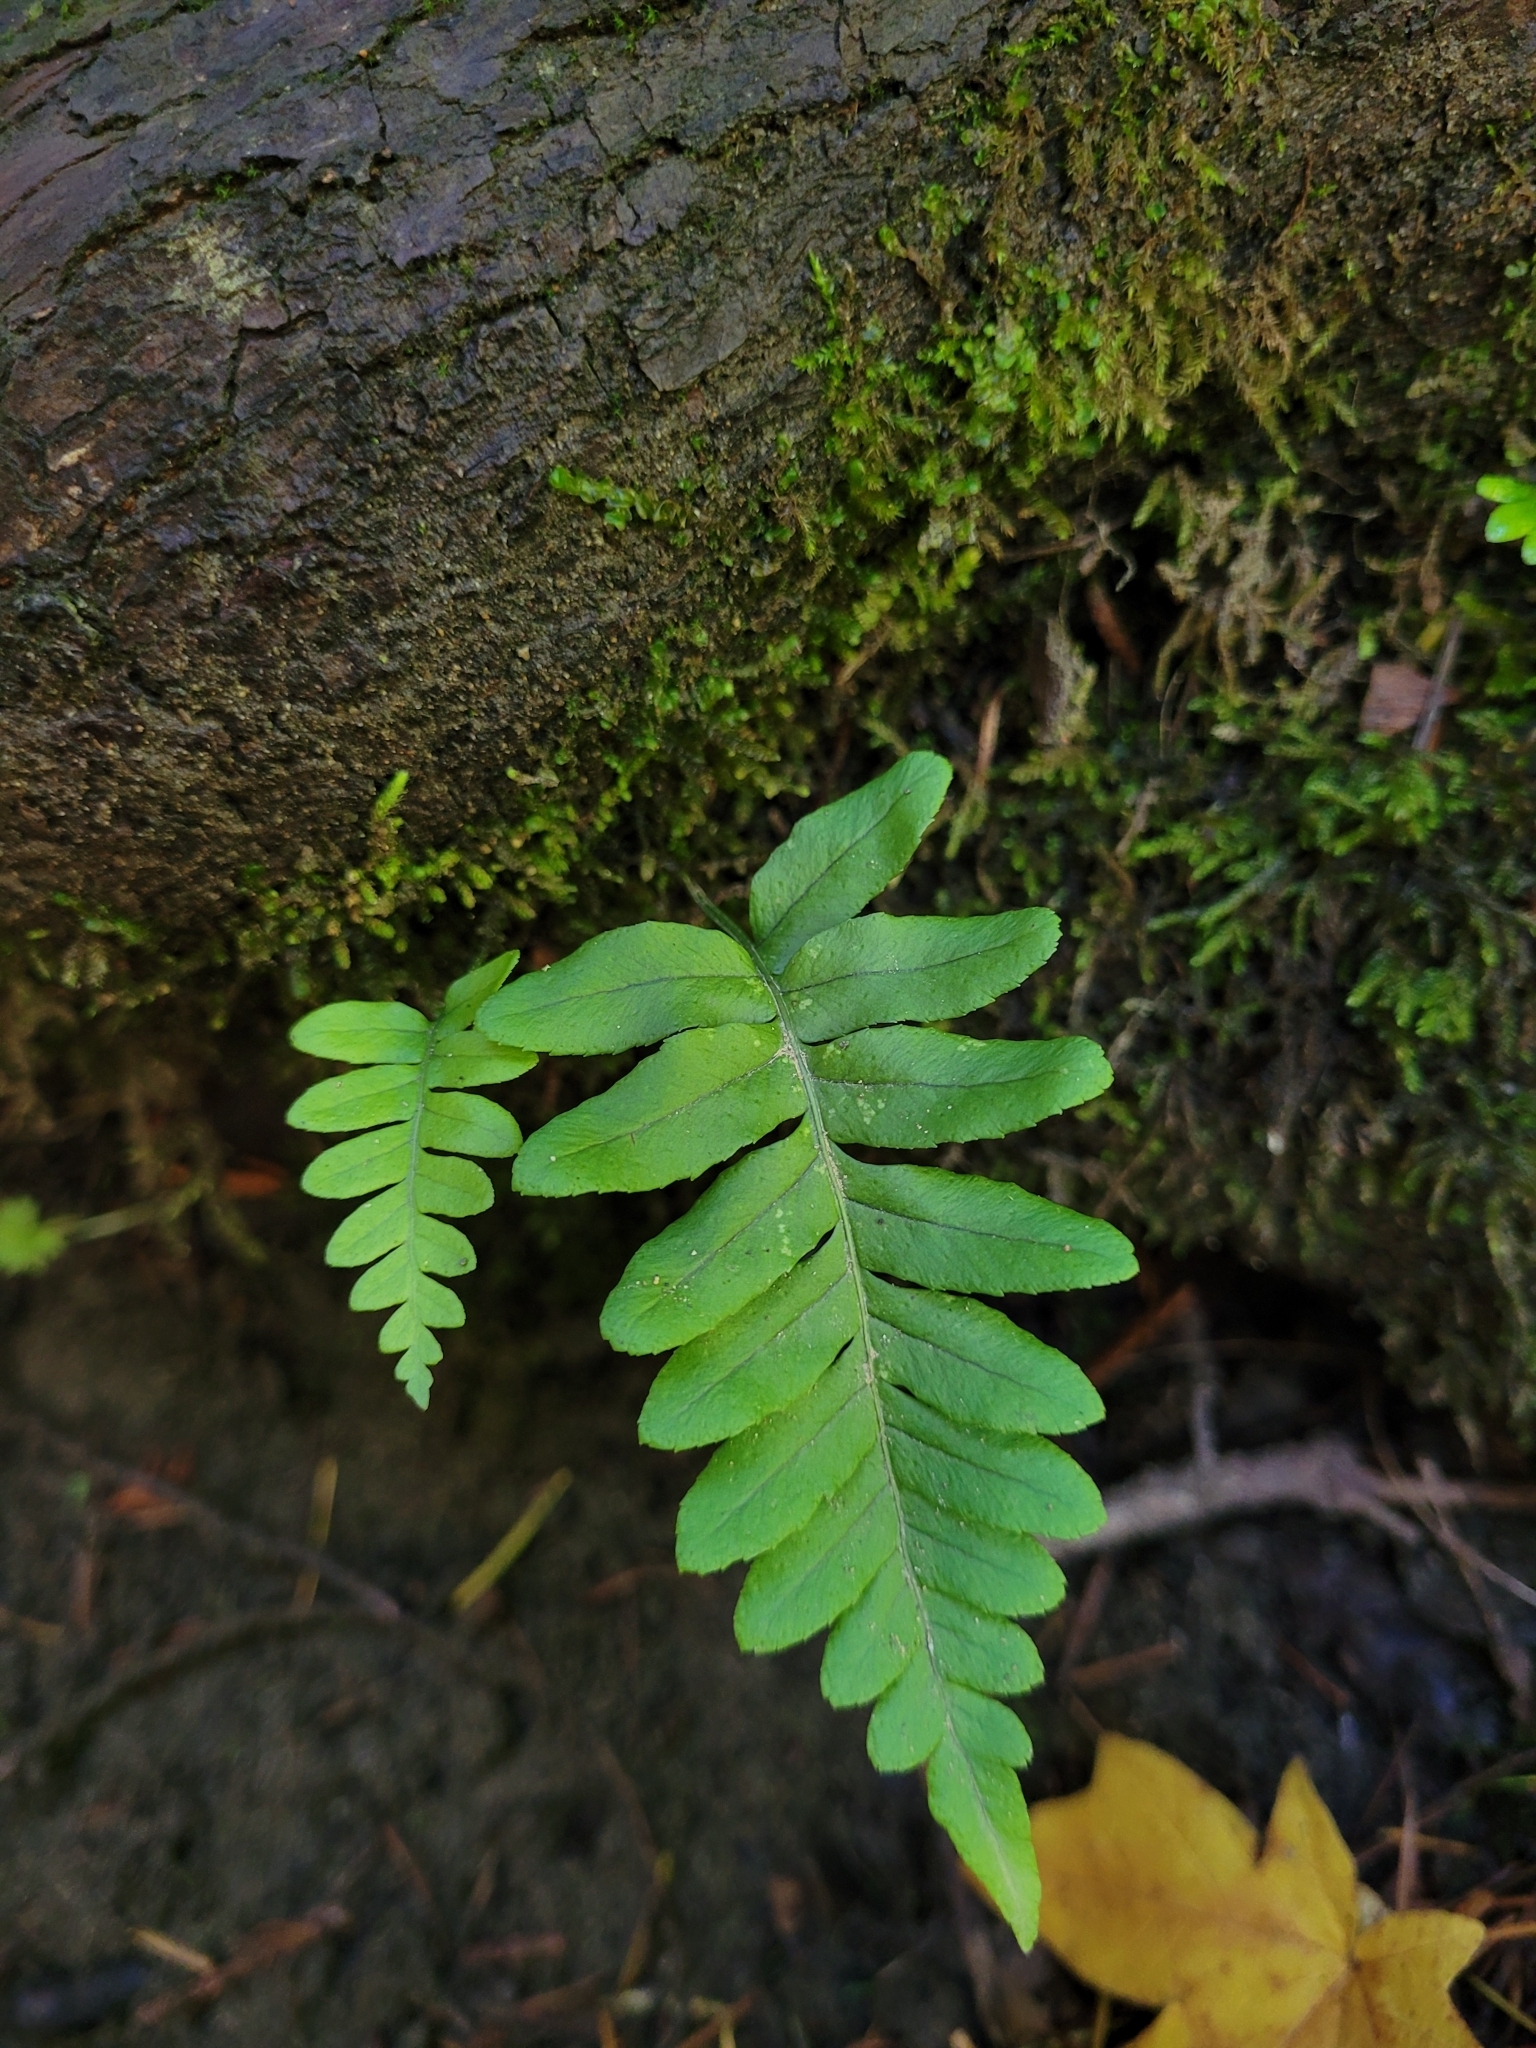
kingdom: Plantae
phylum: Tracheophyta
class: Polypodiopsida
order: Polypodiales
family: Polypodiaceae
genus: Polypodium
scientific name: Polypodium glycyrrhiza
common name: Licorice fern
